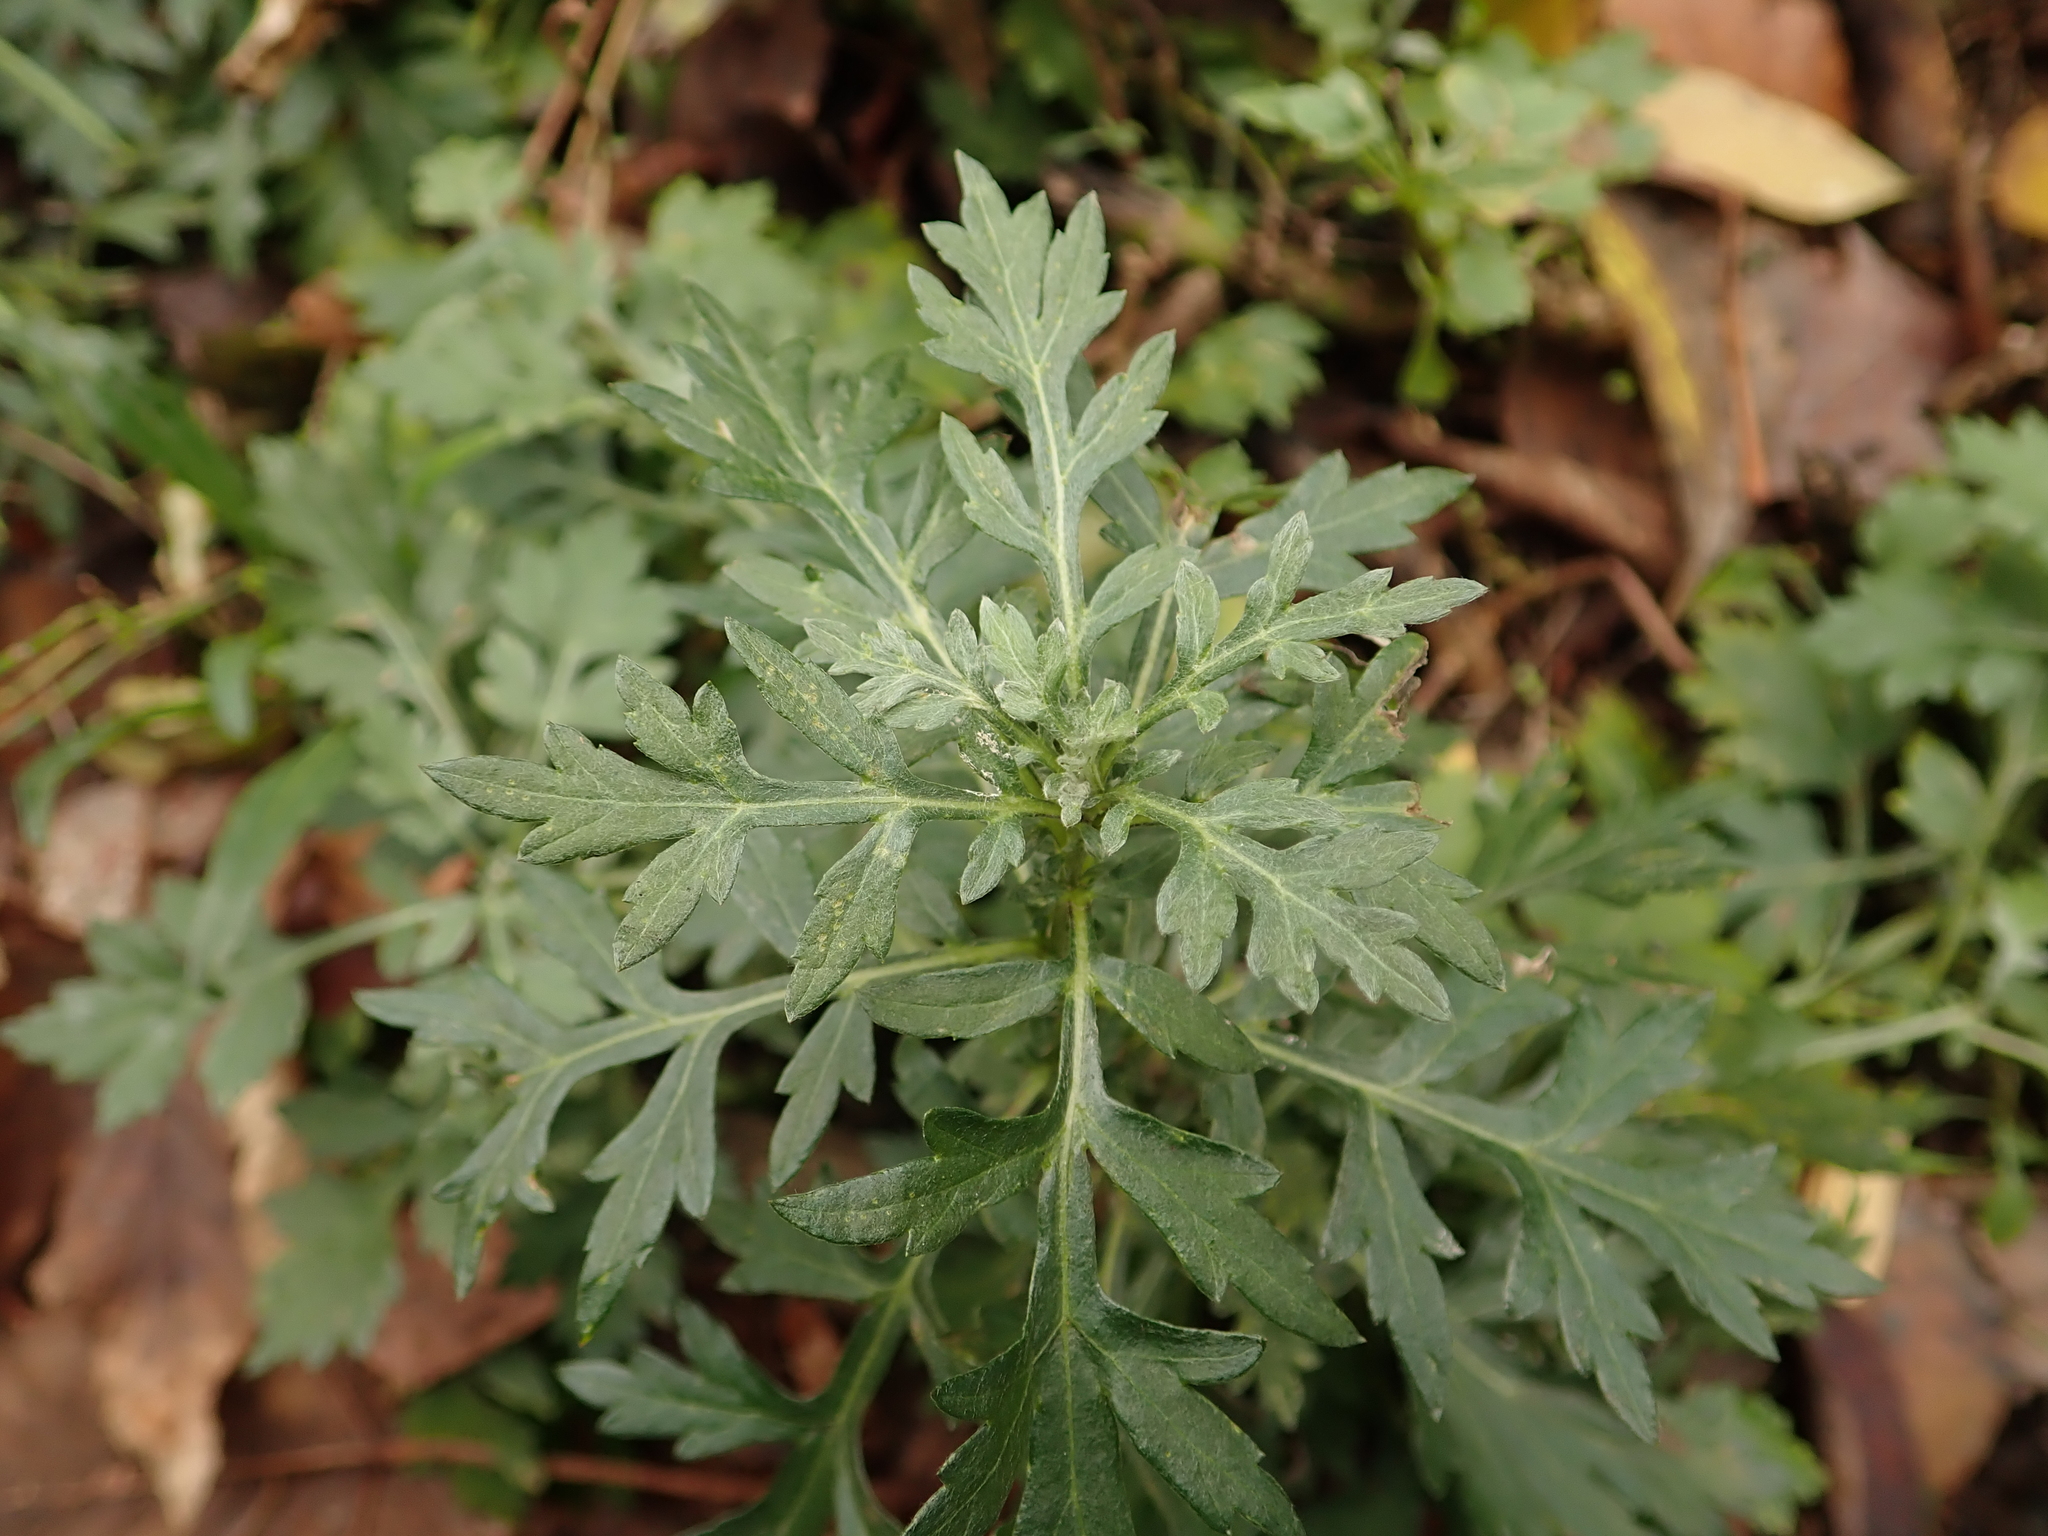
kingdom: Plantae
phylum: Tracheophyta
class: Magnoliopsida
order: Asterales
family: Asteraceae
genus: Artemisia
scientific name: Artemisia vulgaris
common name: Mugwort
